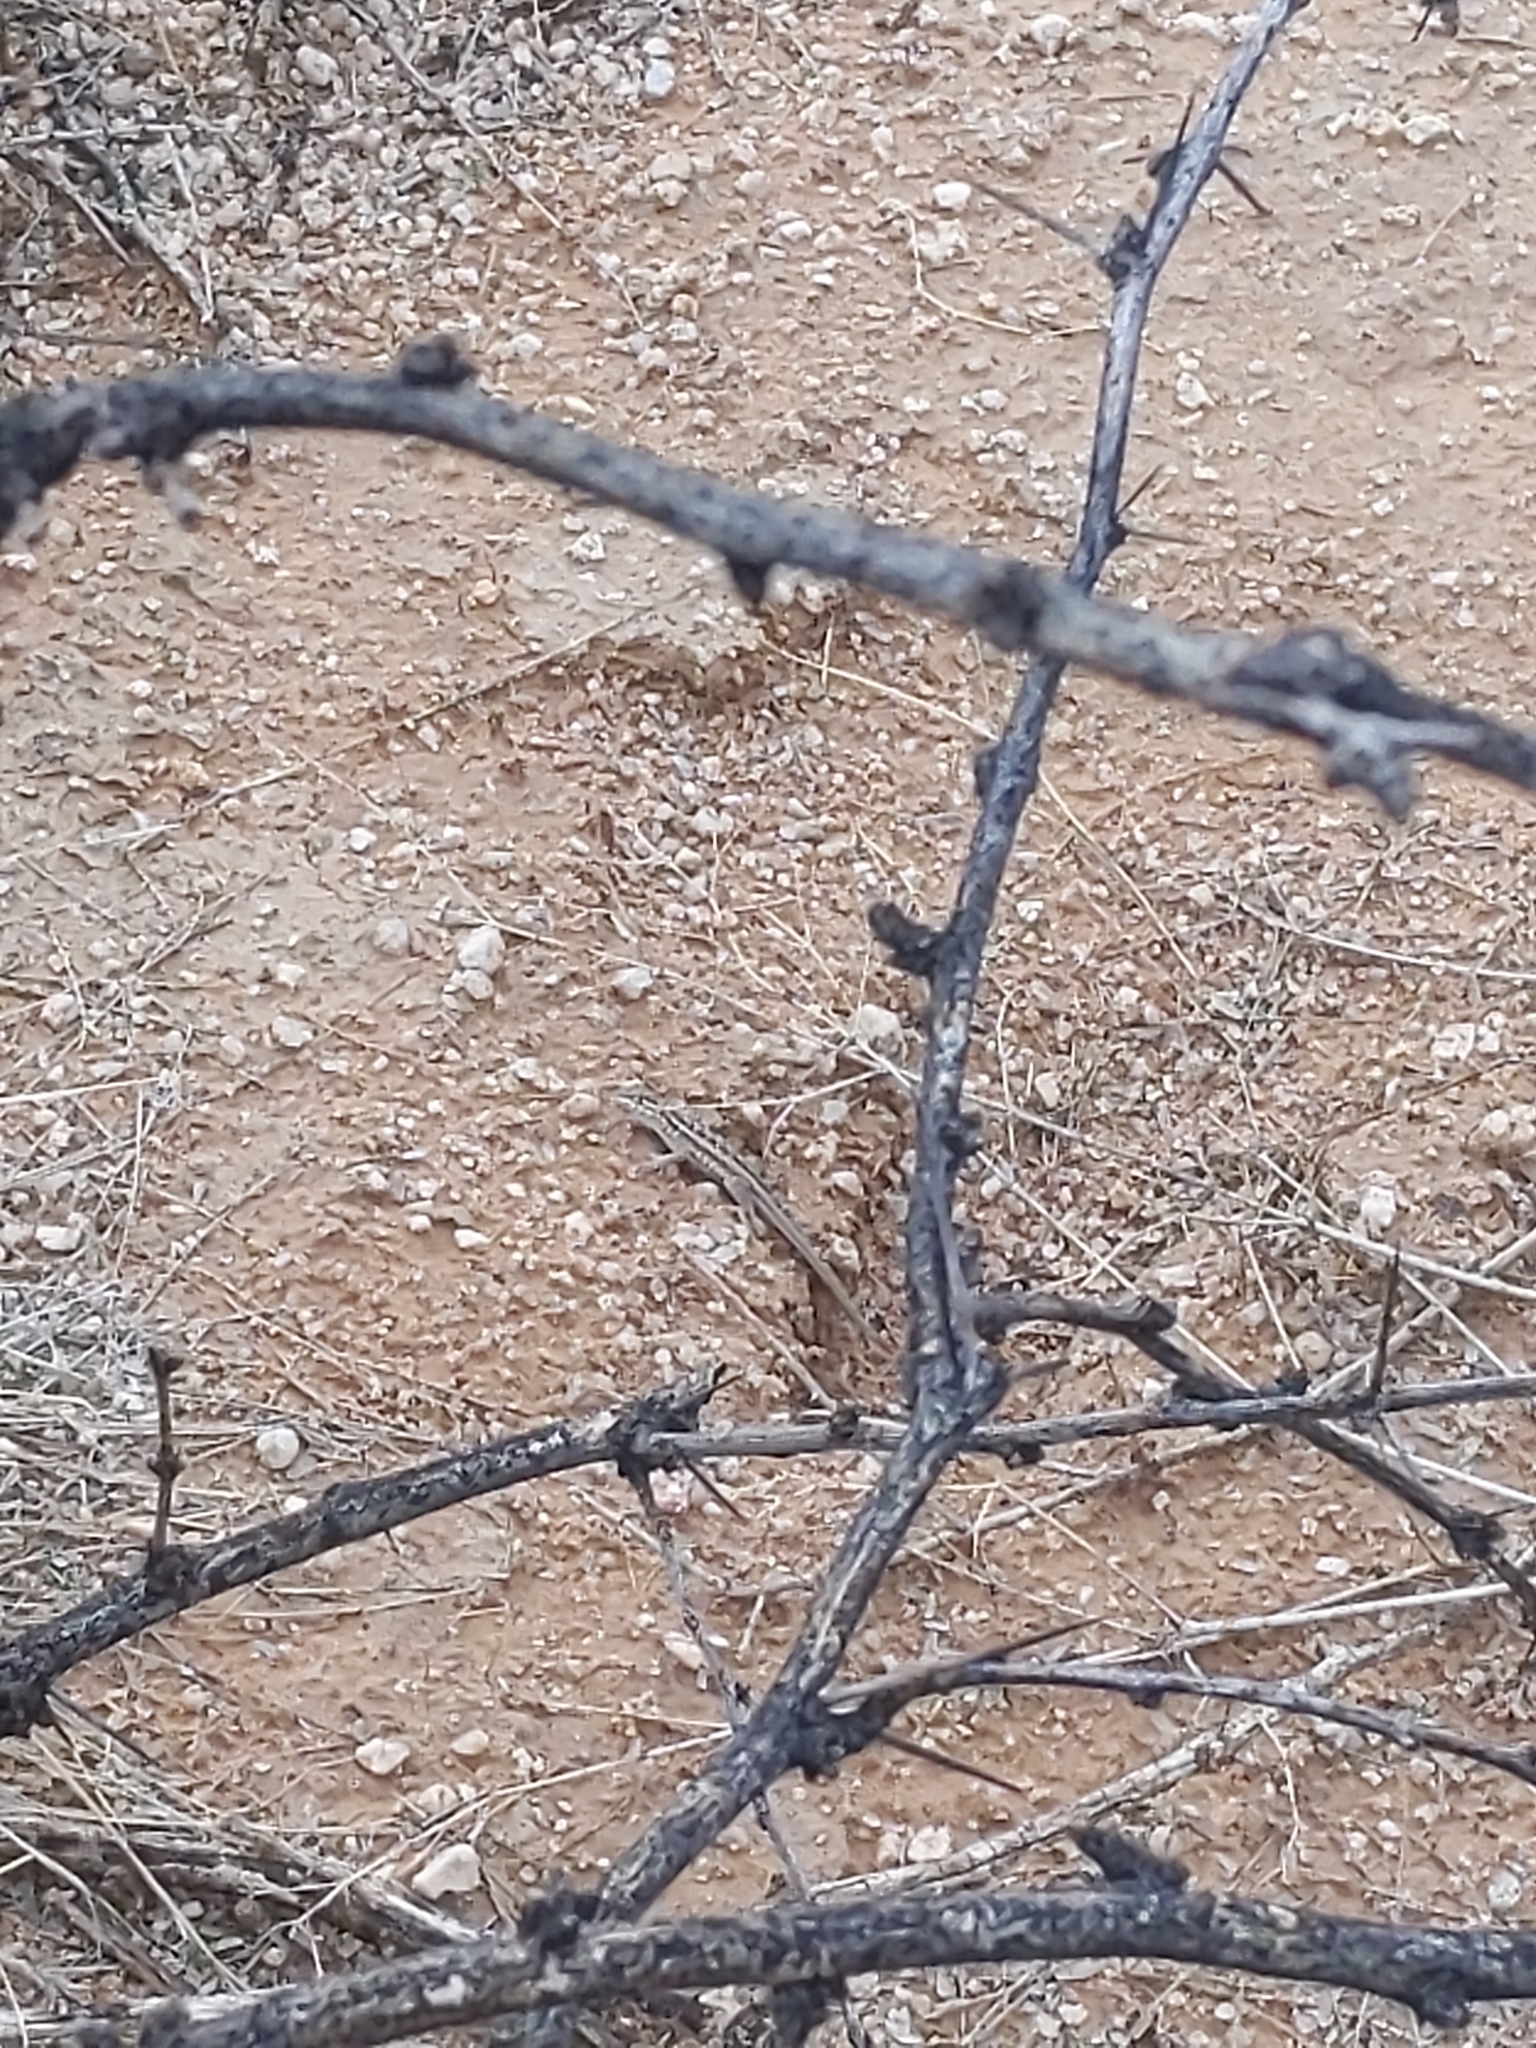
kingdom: Animalia
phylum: Chordata
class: Squamata
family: Phrynosomatidae
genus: Uta
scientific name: Uta stansburiana
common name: Side-blotched lizard
